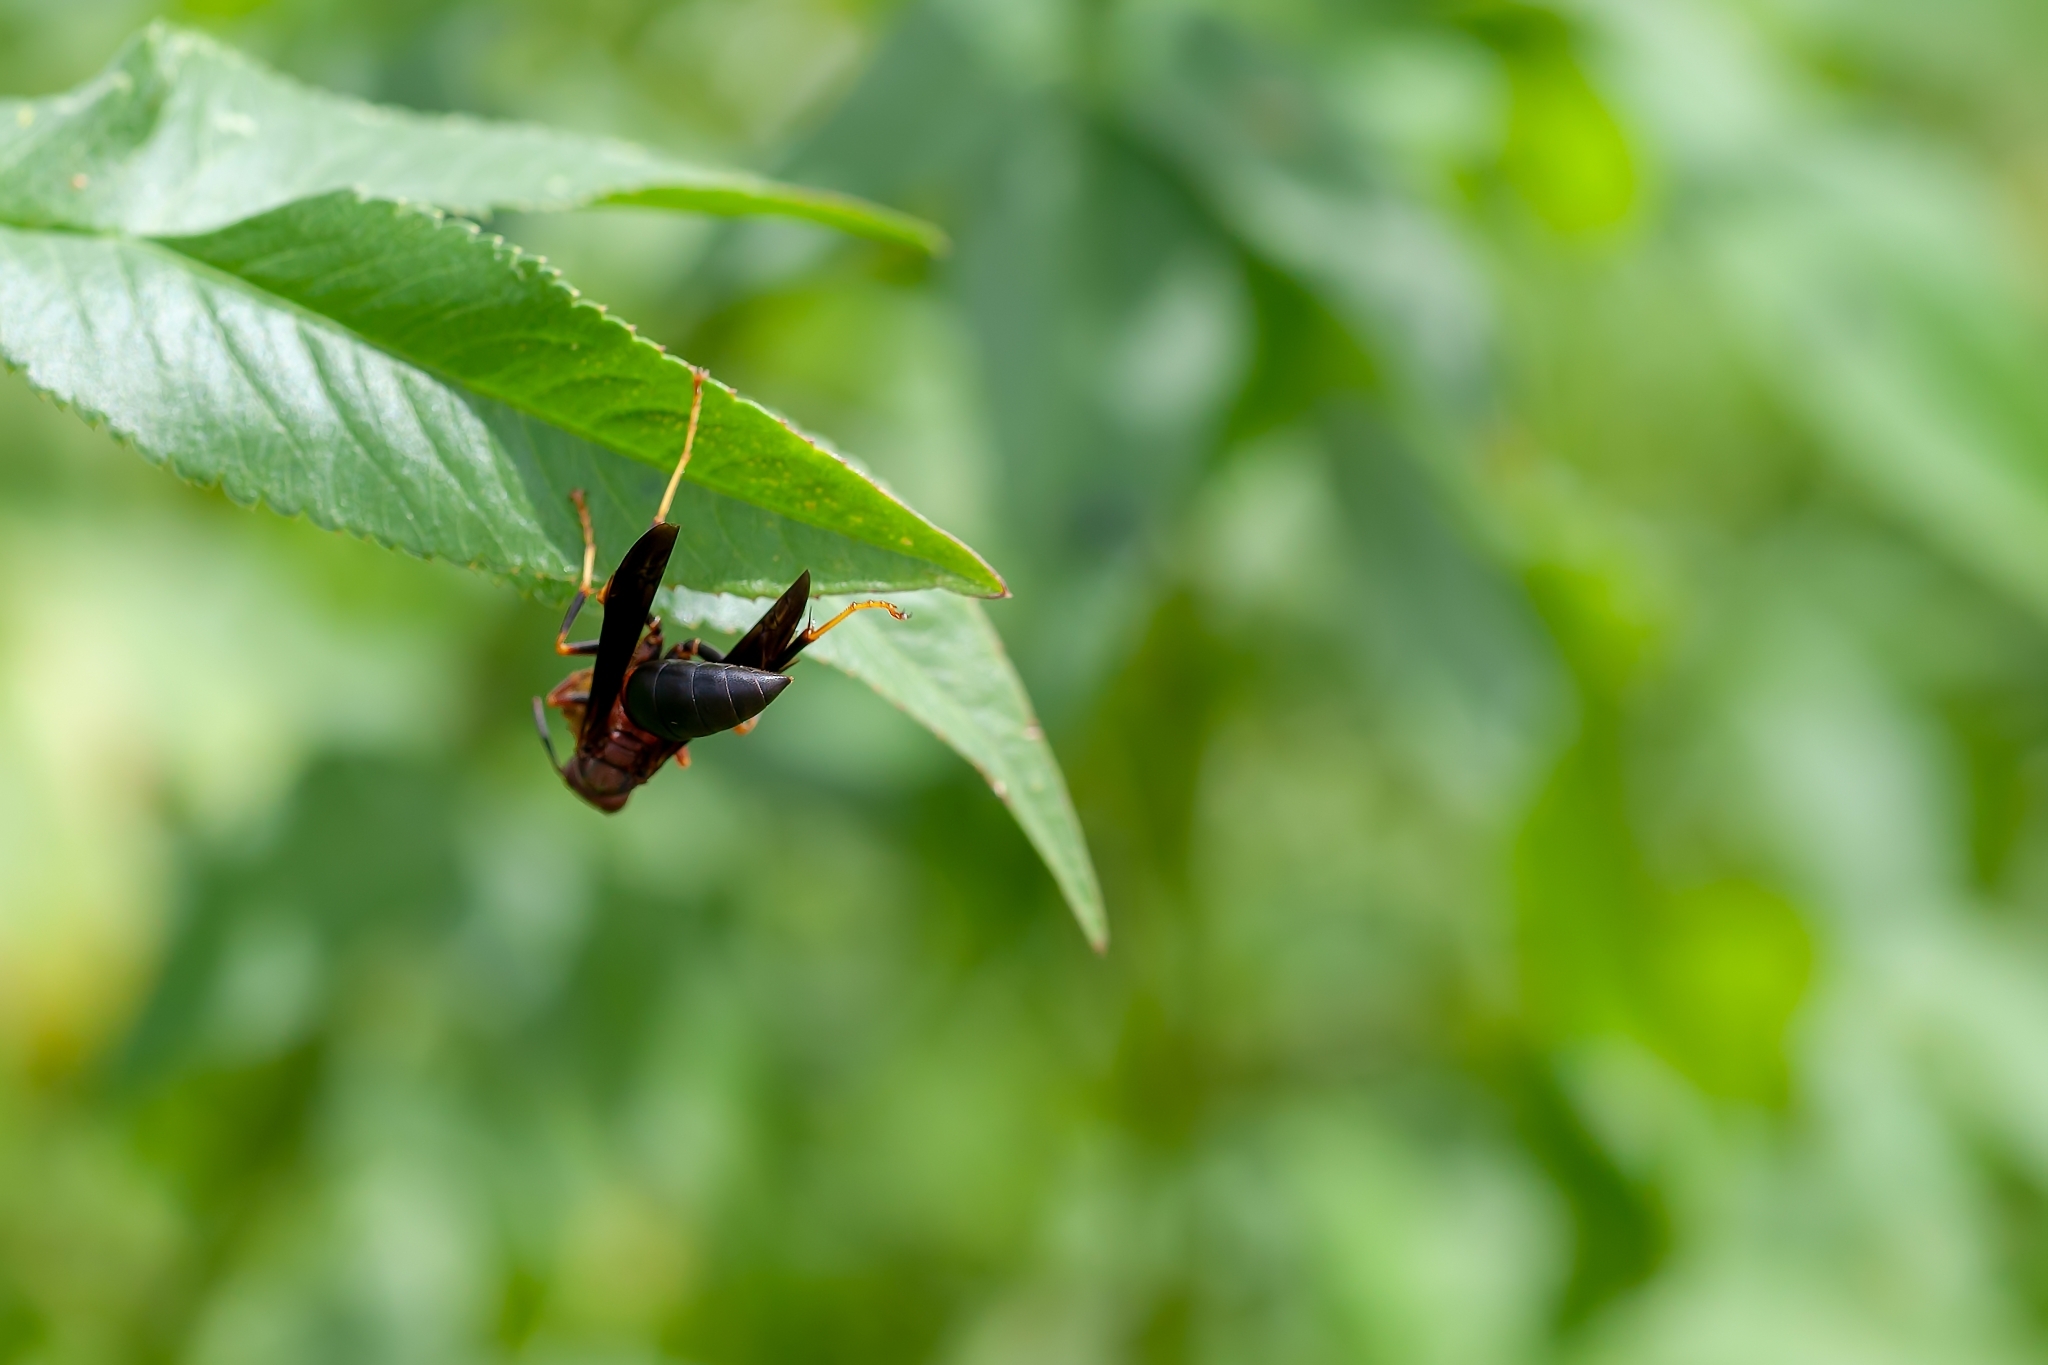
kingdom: Animalia
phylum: Arthropoda
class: Insecta
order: Hymenoptera
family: Eumenidae
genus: Polistes
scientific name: Polistes metricus
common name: Metric paper wasp
